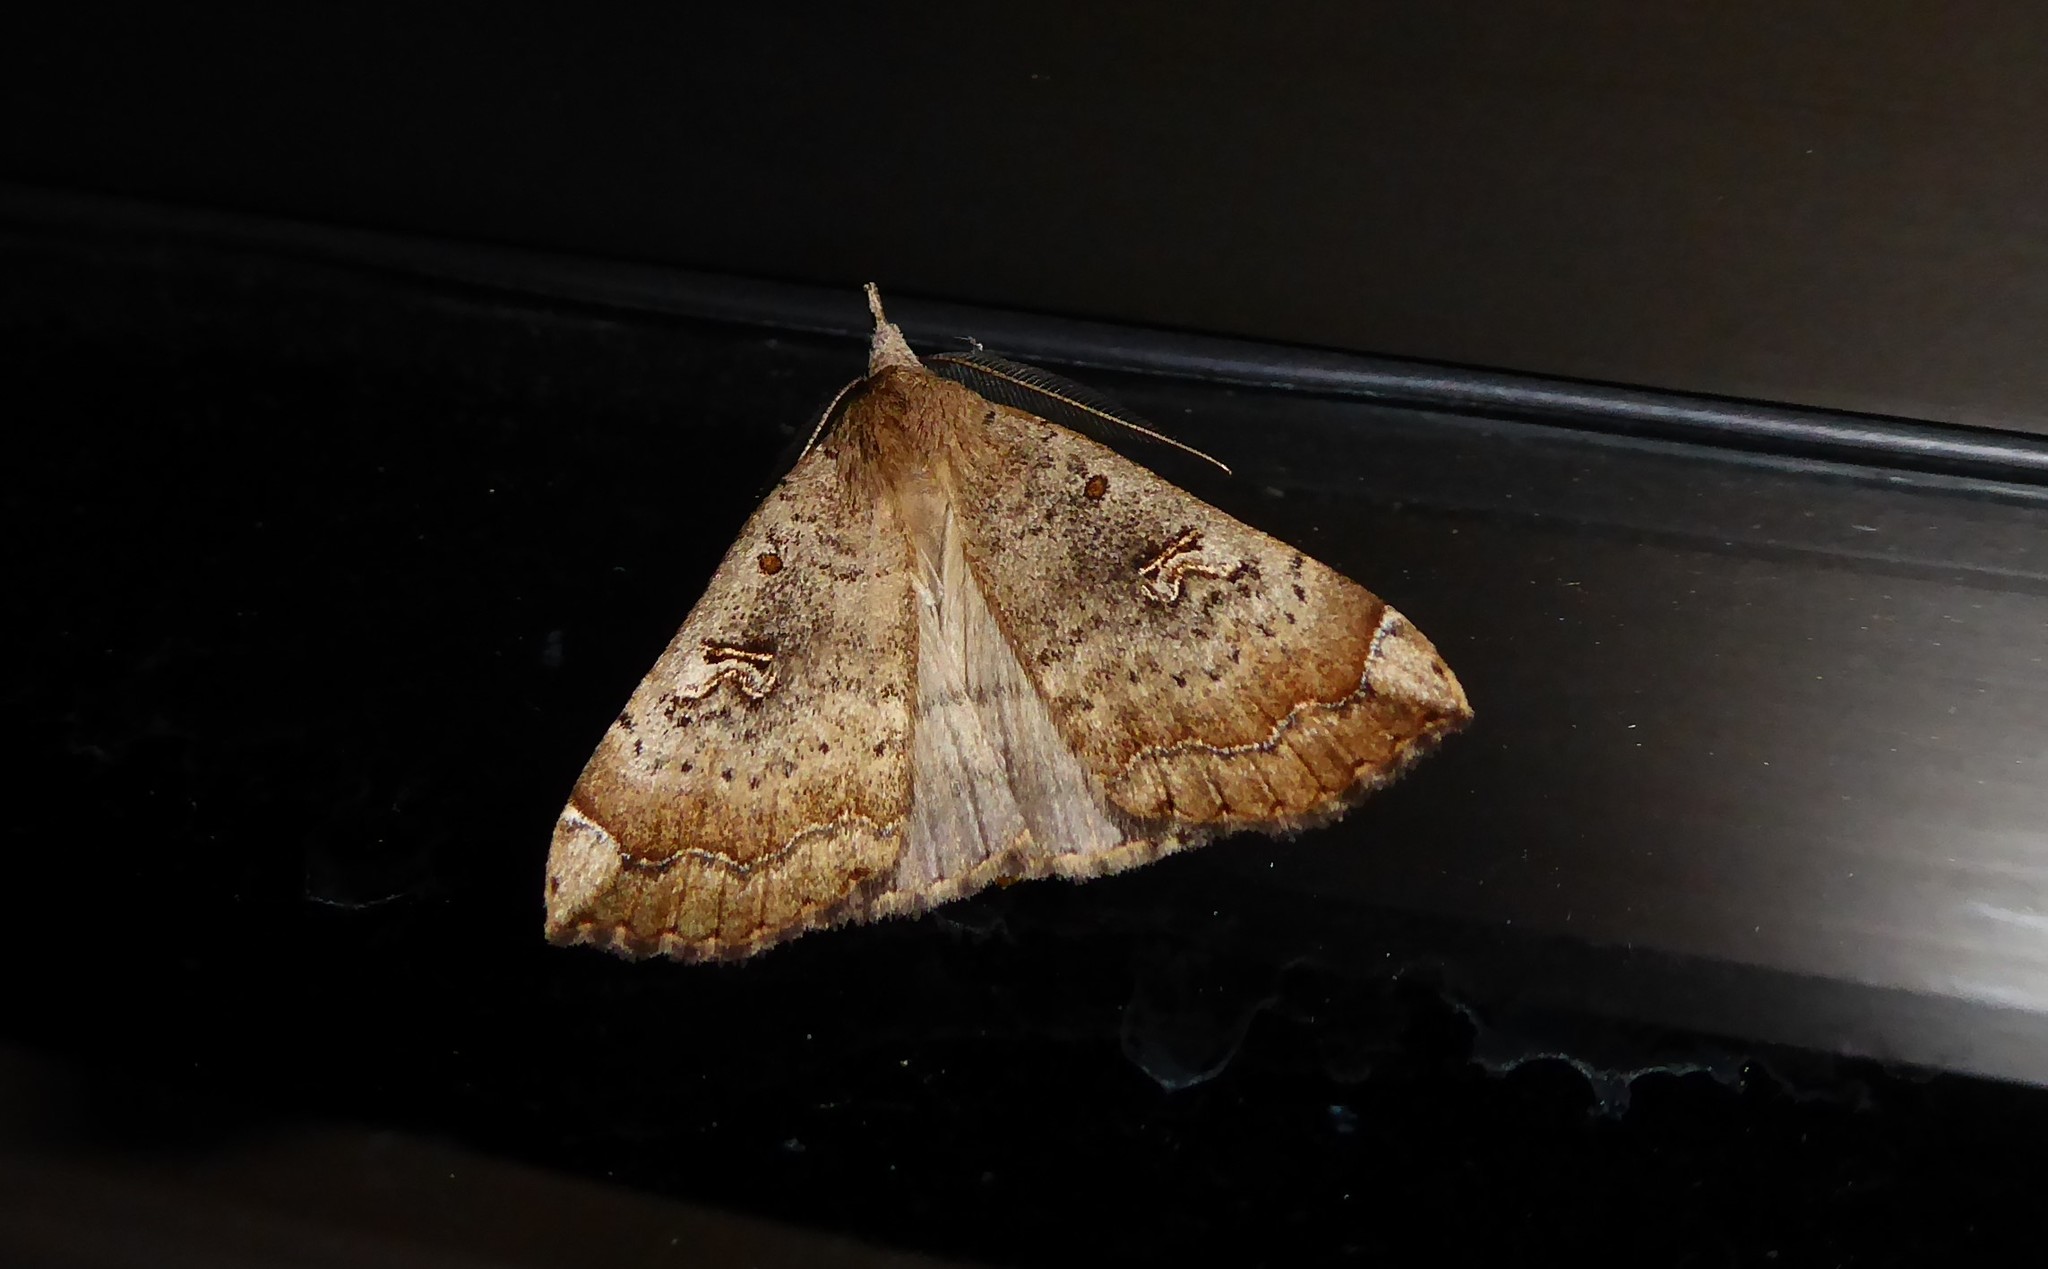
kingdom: Animalia
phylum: Arthropoda
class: Insecta
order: Lepidoptera
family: Erebidae
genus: Rhapsa
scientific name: Rhapsa scotosialis
